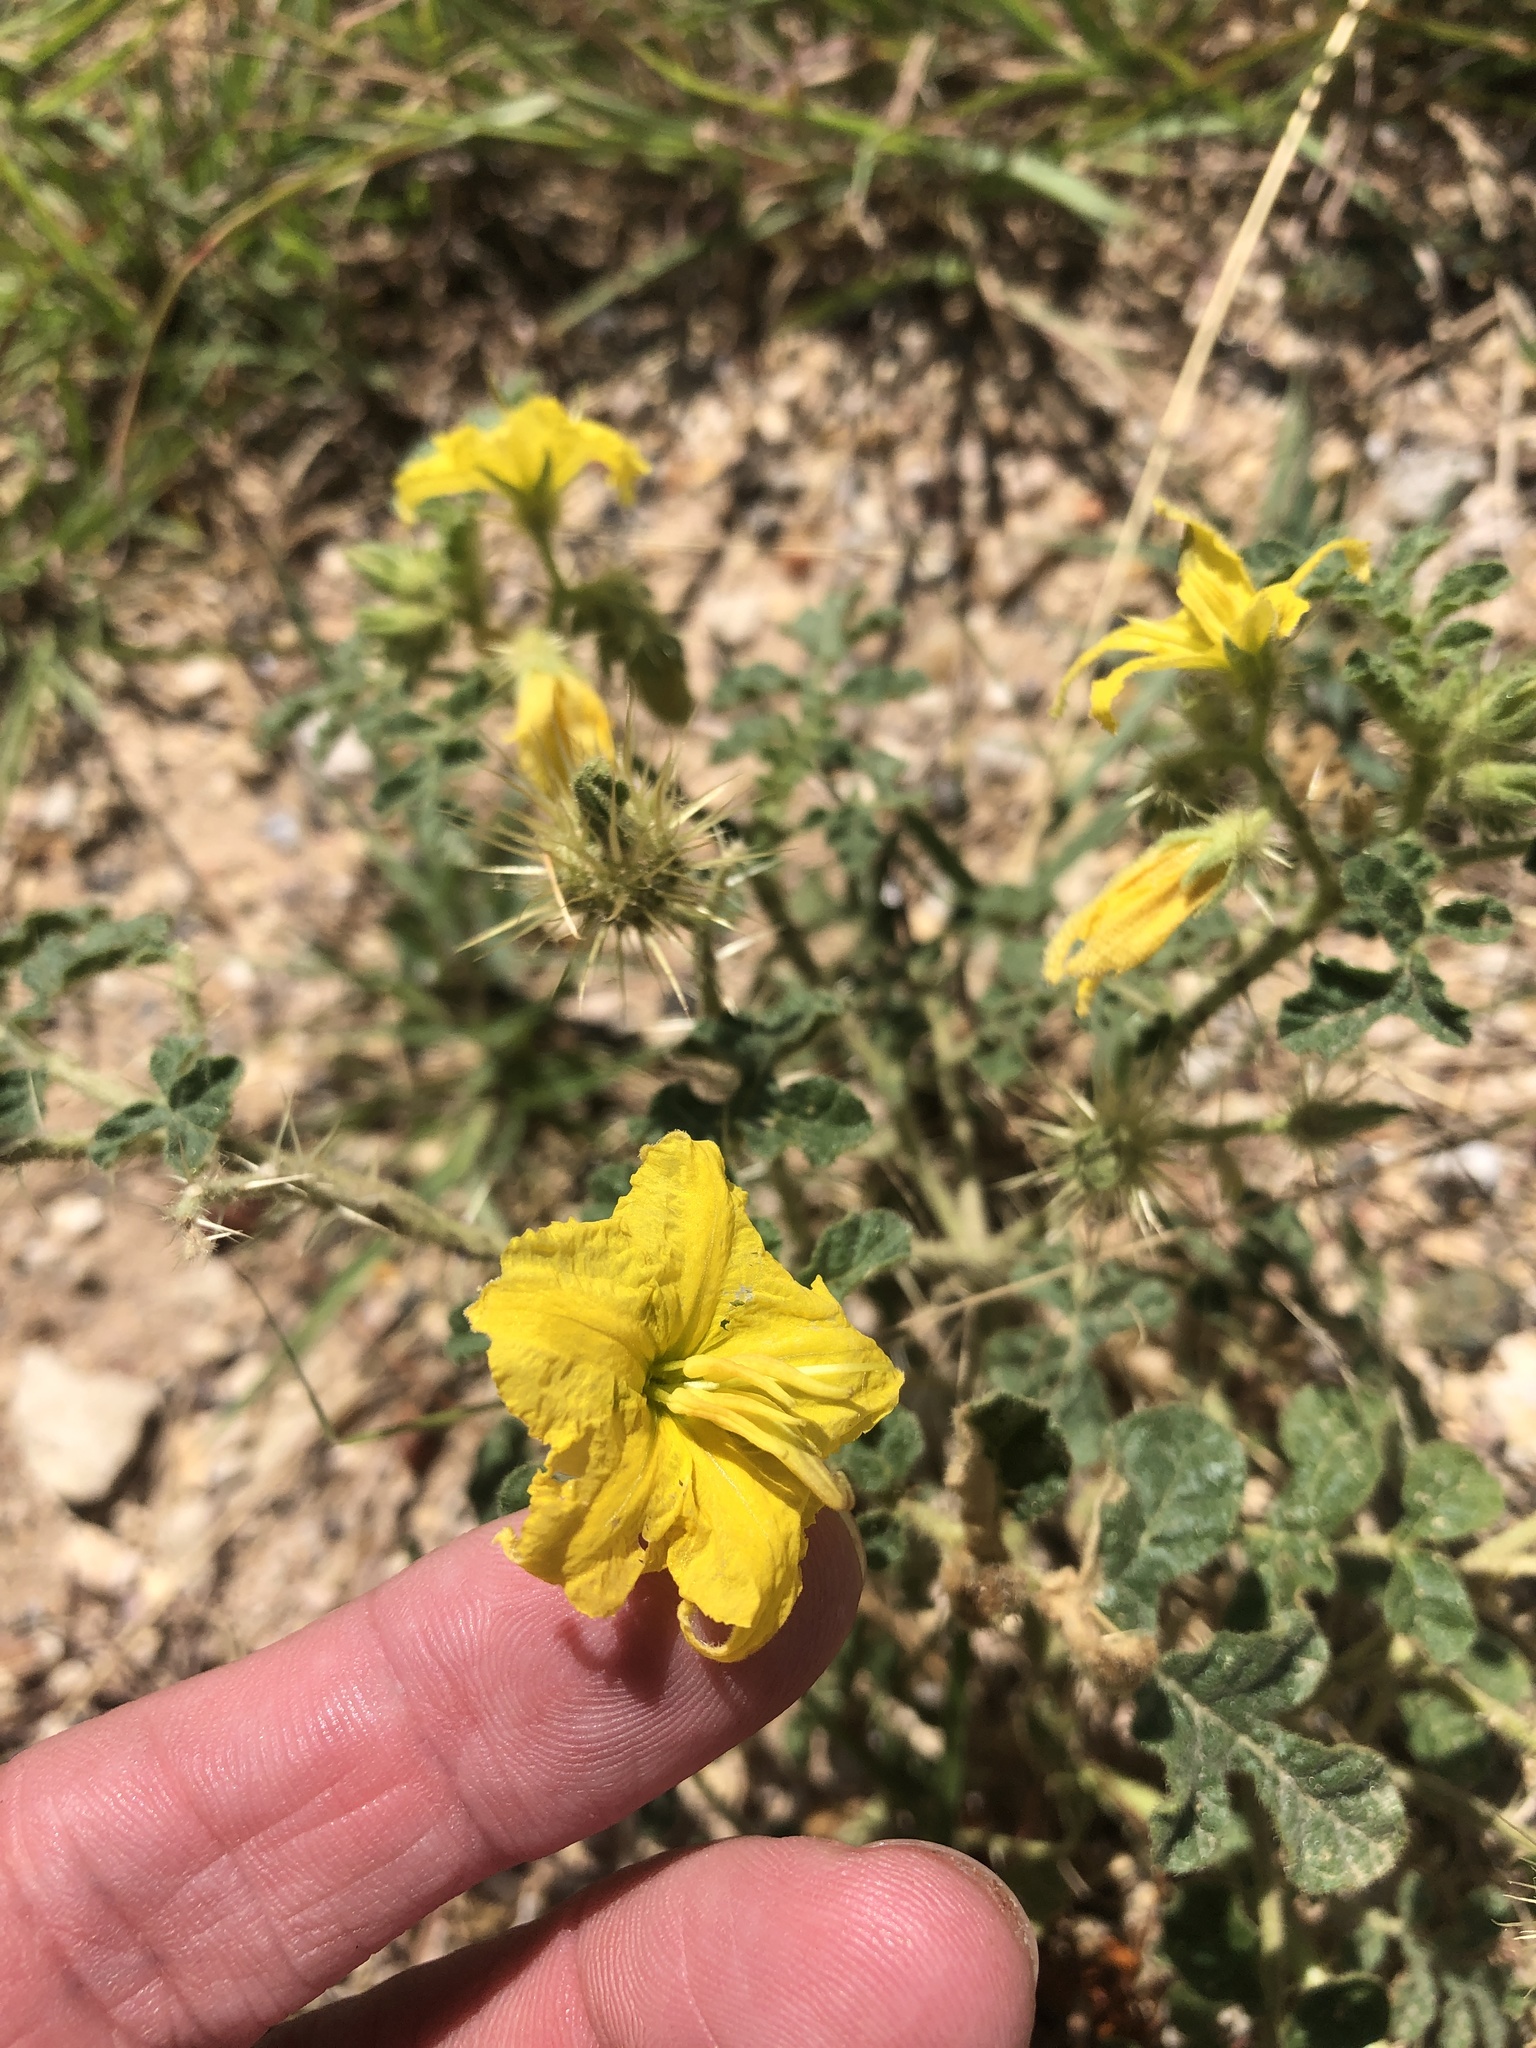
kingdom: Plantae
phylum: Tracheophyta
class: Magnoliopsida
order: Solanales
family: Solanaceae
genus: Solanum
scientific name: Solanum angustifolium
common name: Buffalobur nightshade
